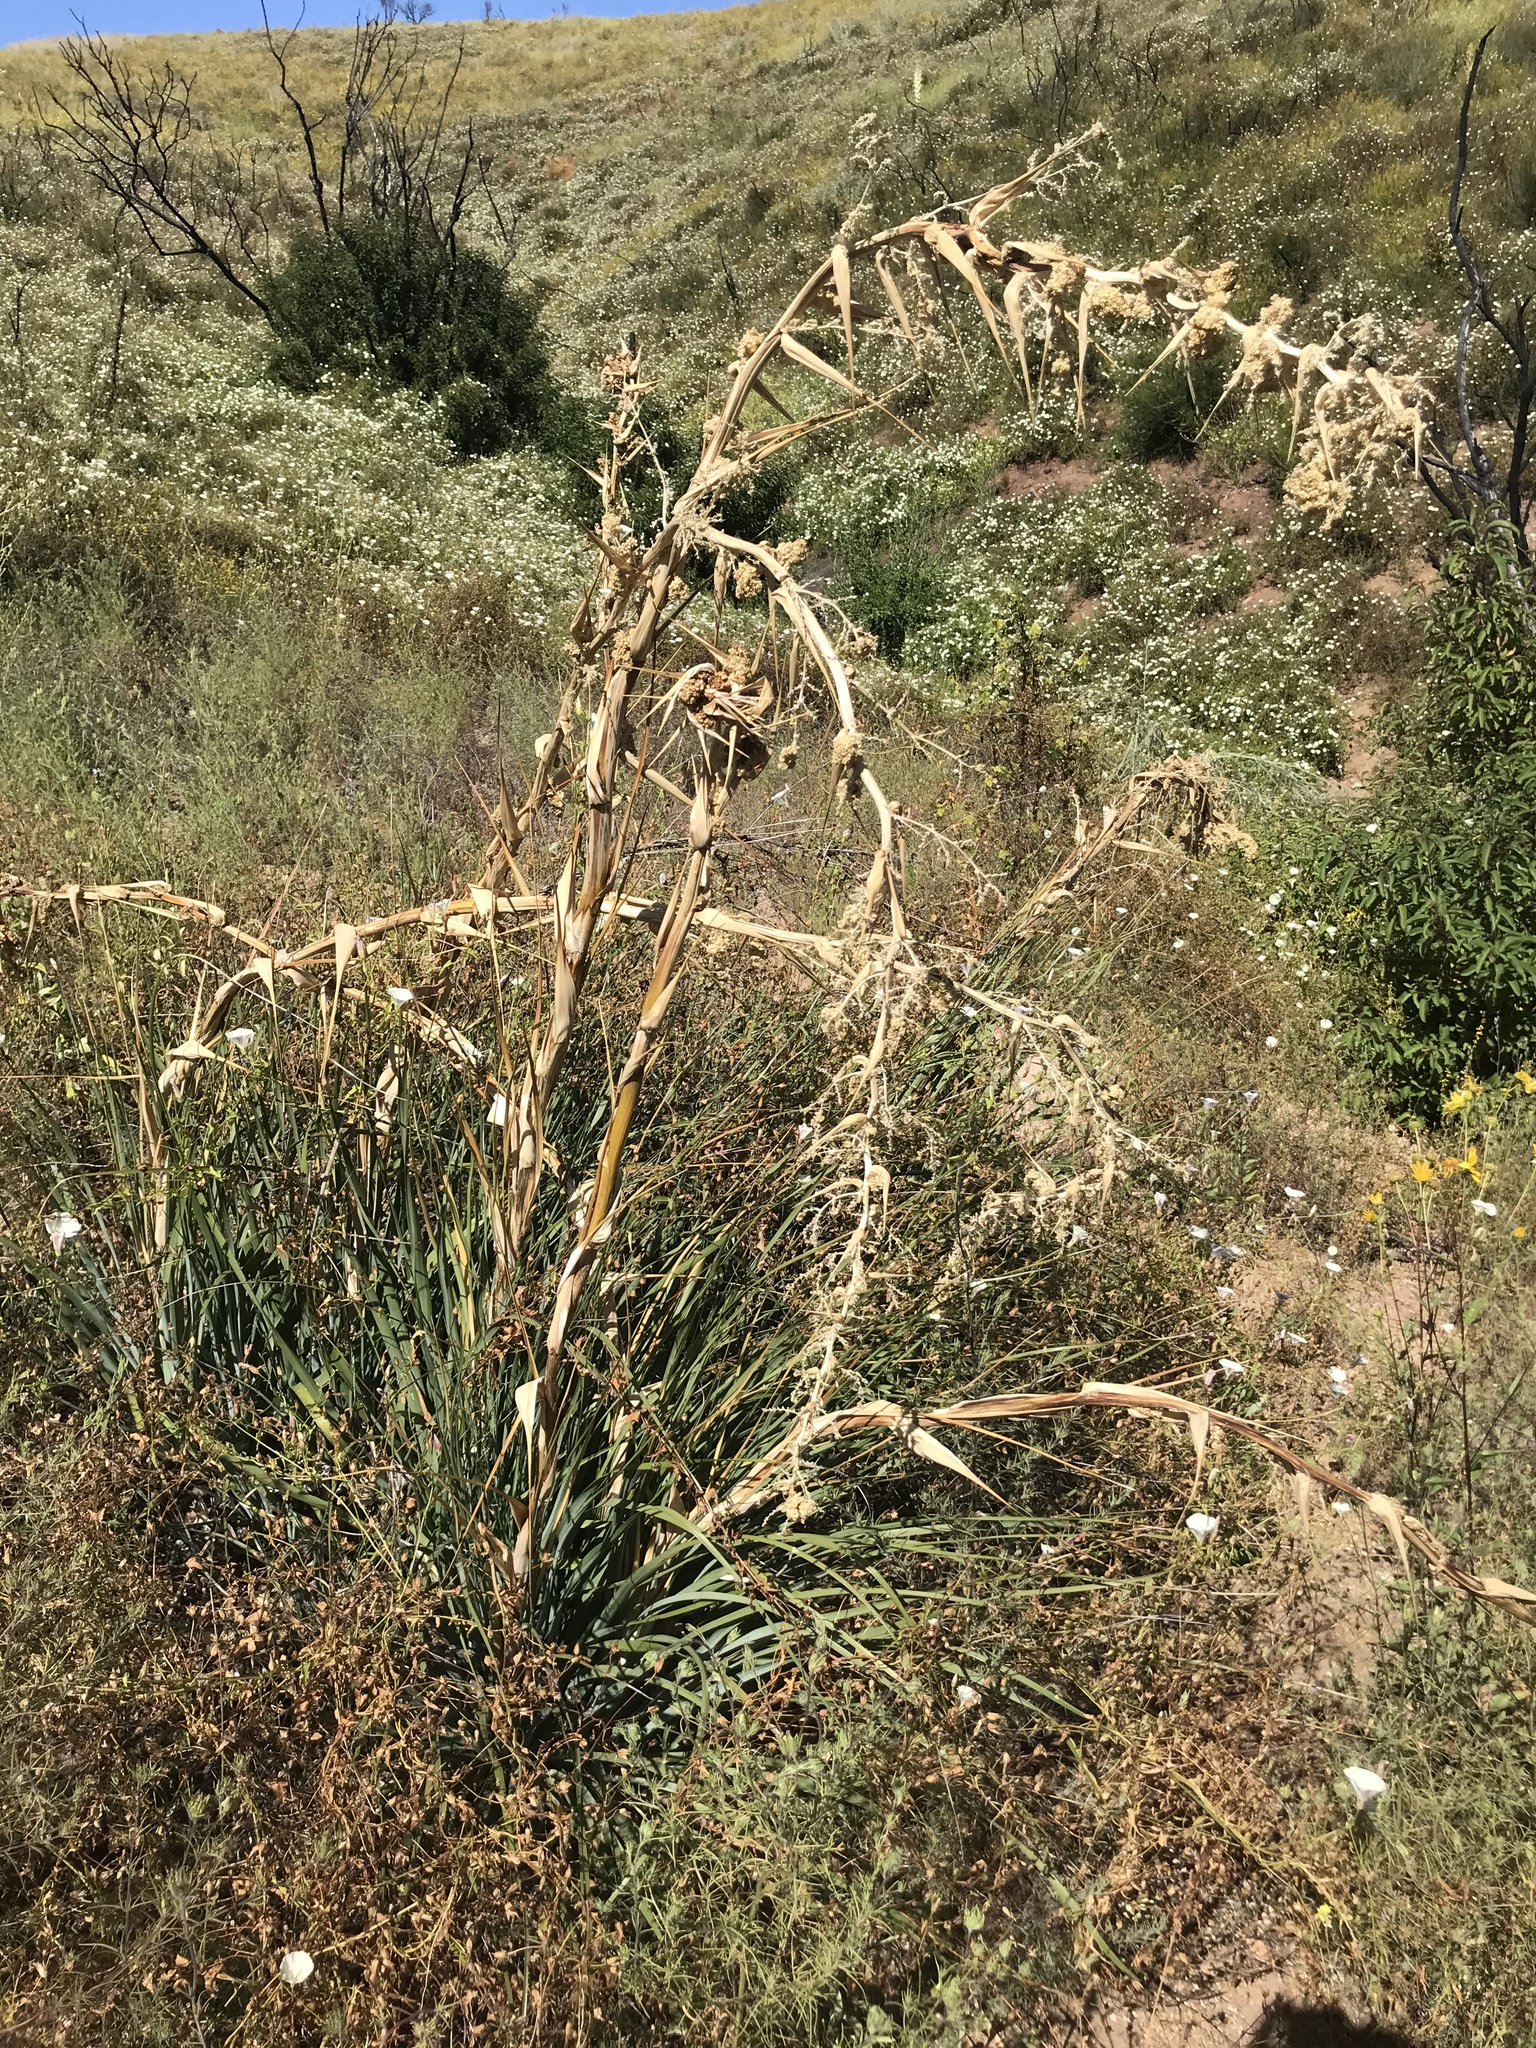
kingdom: Plantae
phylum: Tracheophyta
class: Liliopsida
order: Asparagales
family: Asparagaceae
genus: Nolina
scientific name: Nolina cismontana
